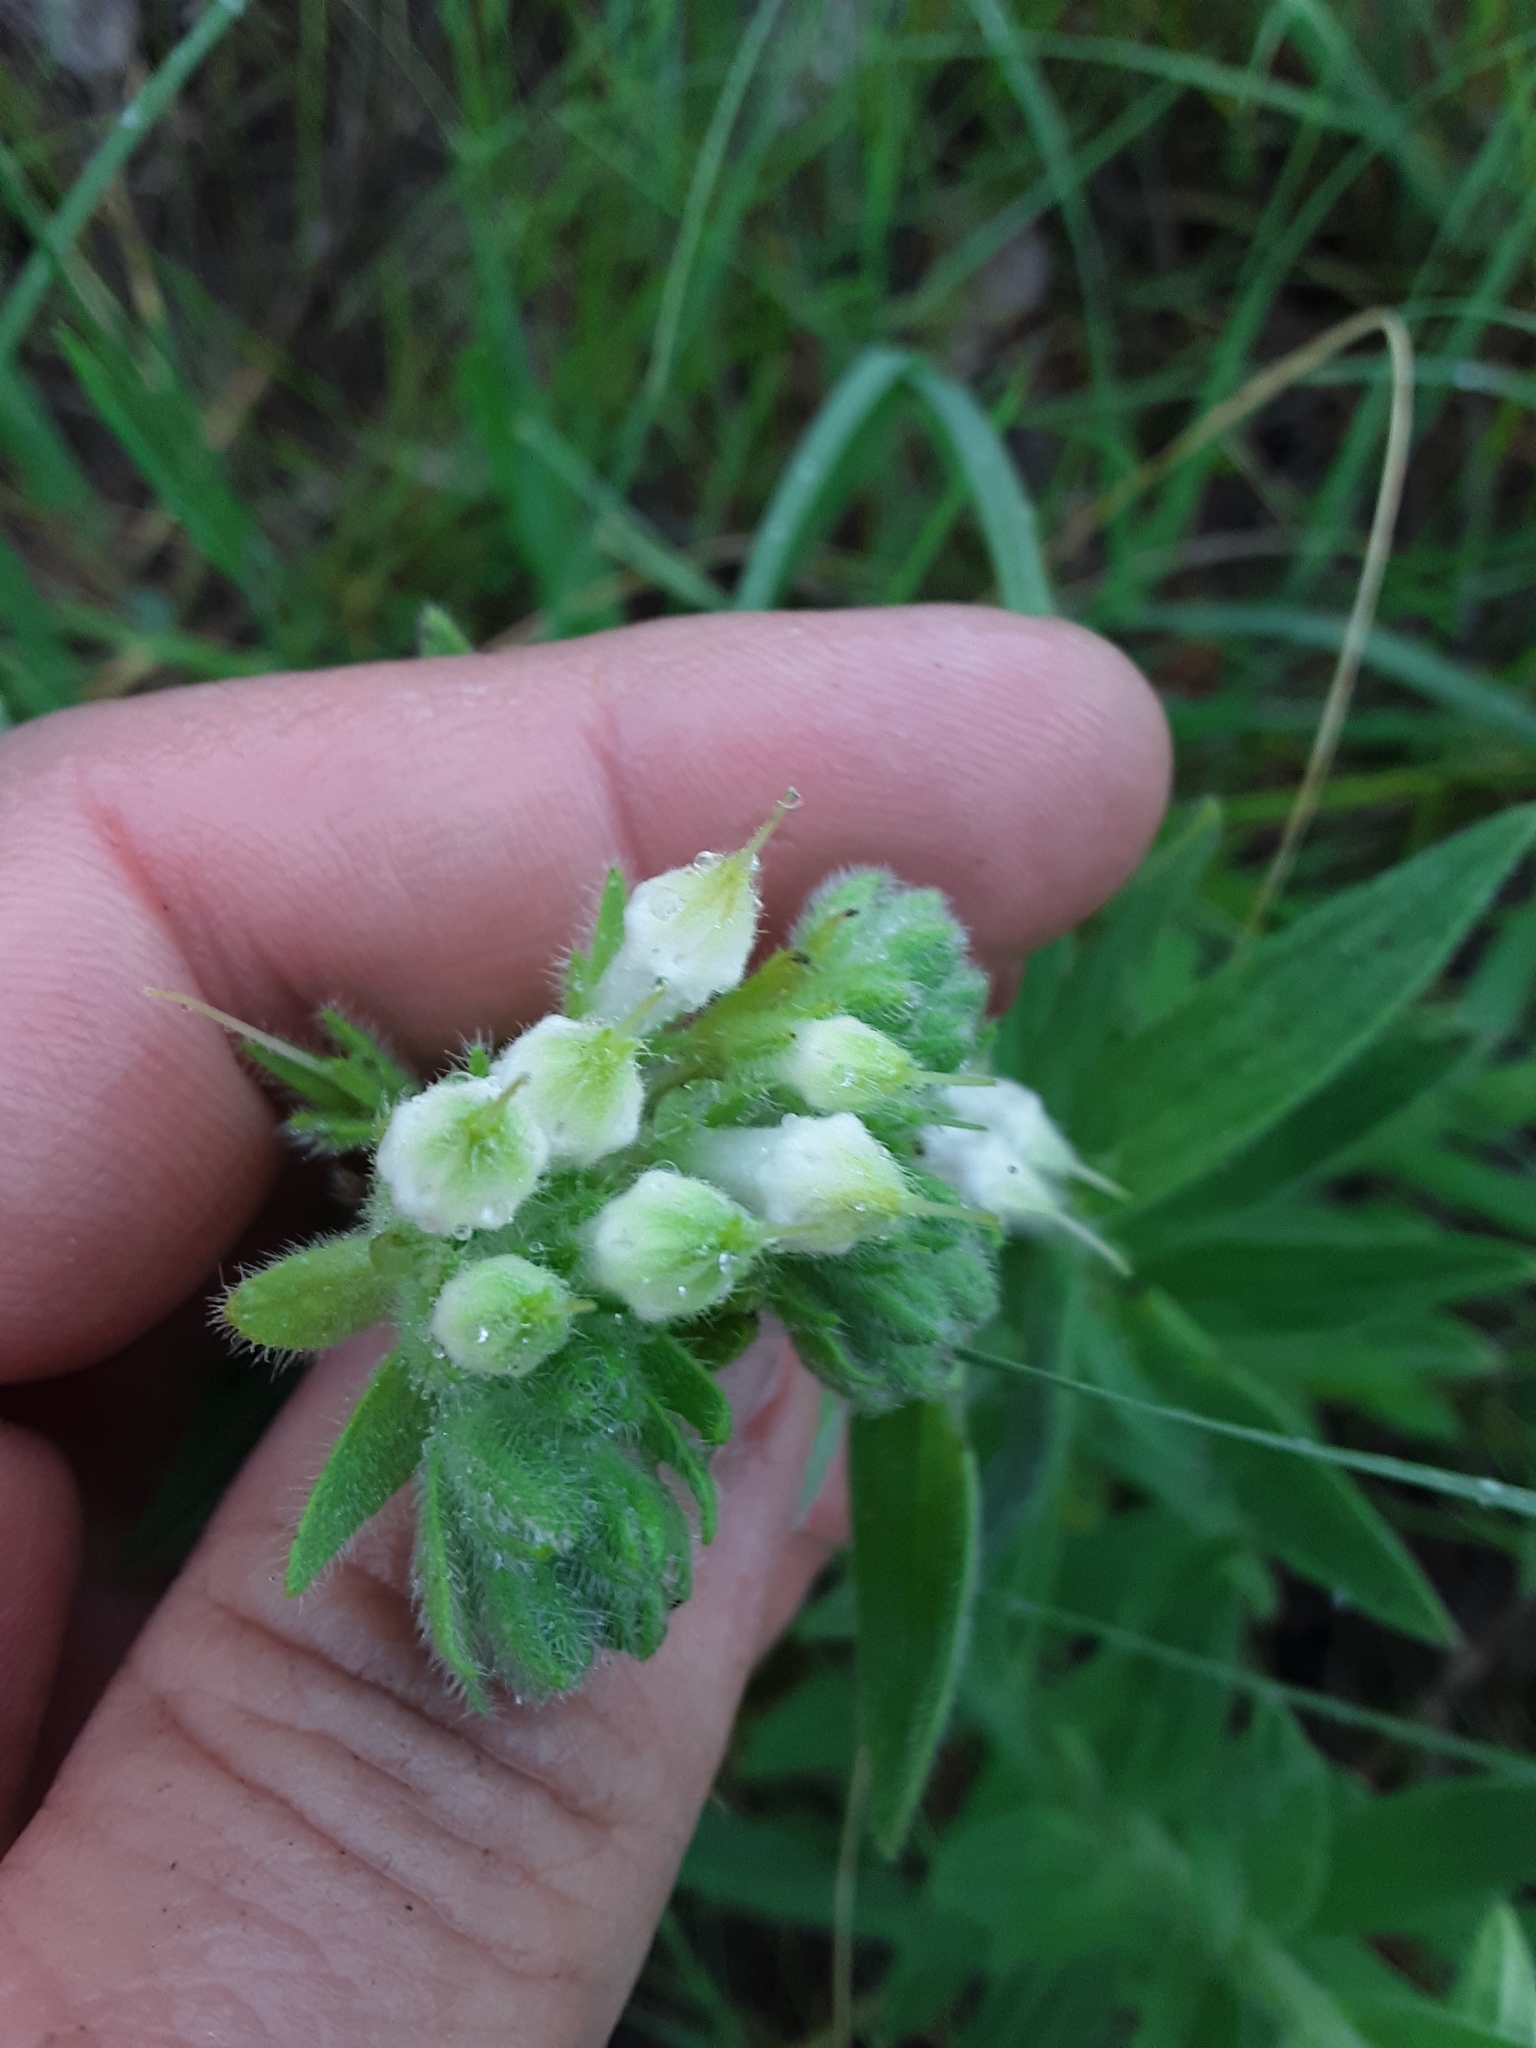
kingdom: Plantae
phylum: Tracheophyta
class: Magnoliopsida
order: Boraginales
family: Boraginaceae
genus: Lithospermum
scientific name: Lithospermum occidentale
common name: Western false gromwell
